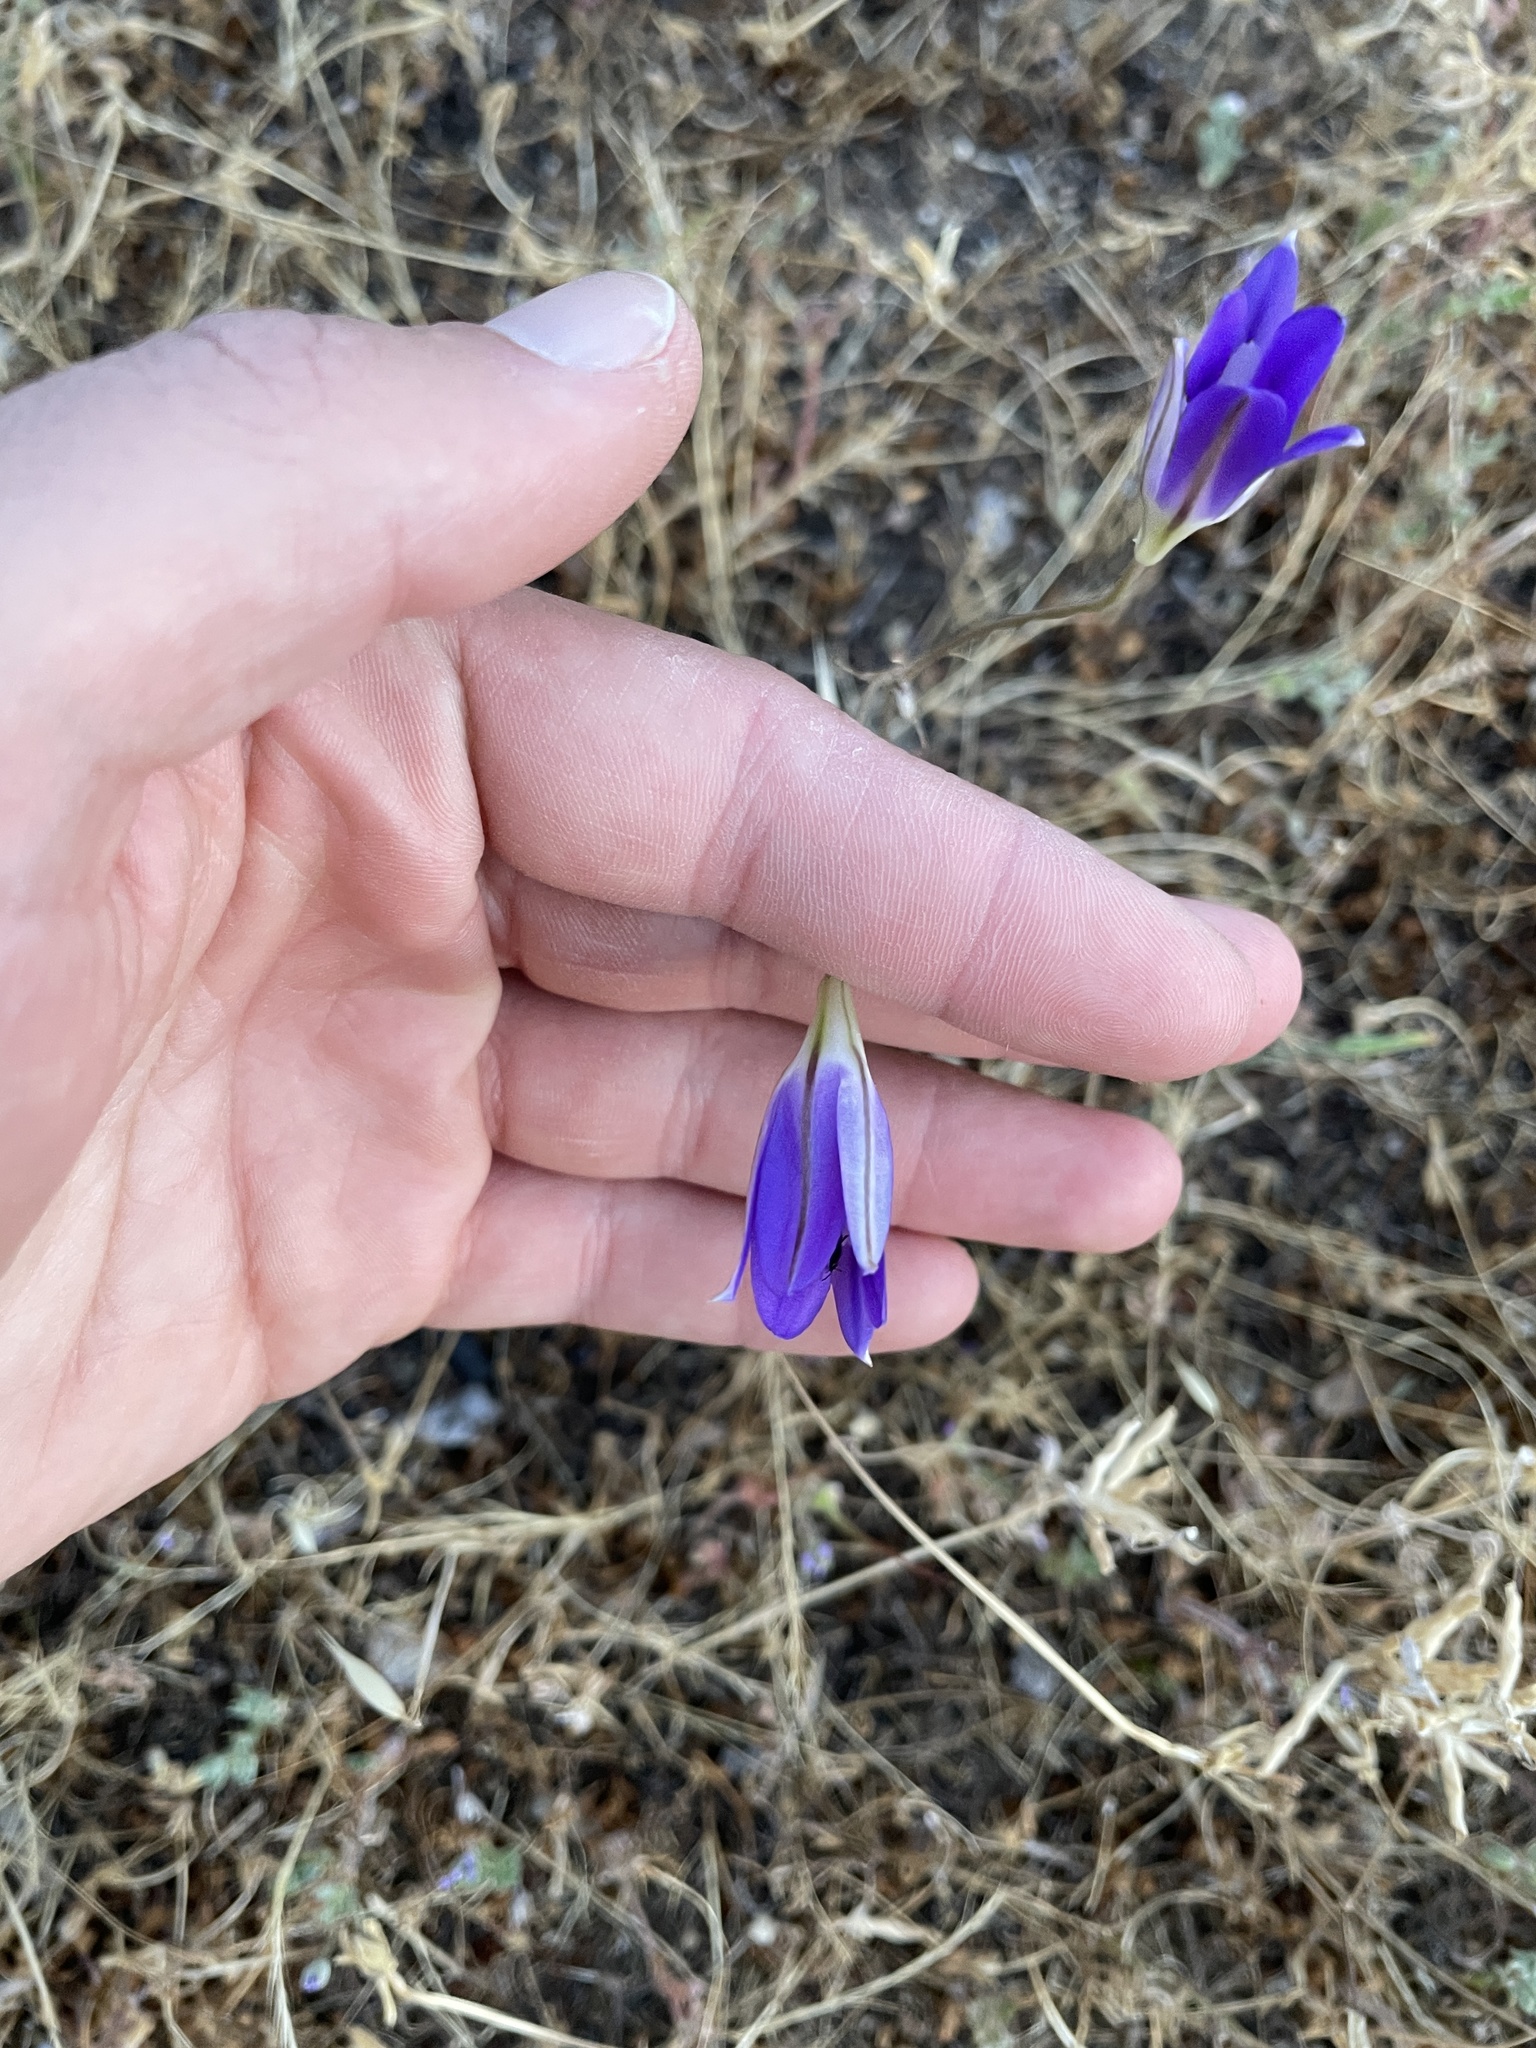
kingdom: Plantae
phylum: Tracheophyta
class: Liliopsida
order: Asparagales
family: Asparagaceae
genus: Brodiaea
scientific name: Brodiaea elegans
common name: Elegant cluster-lily
